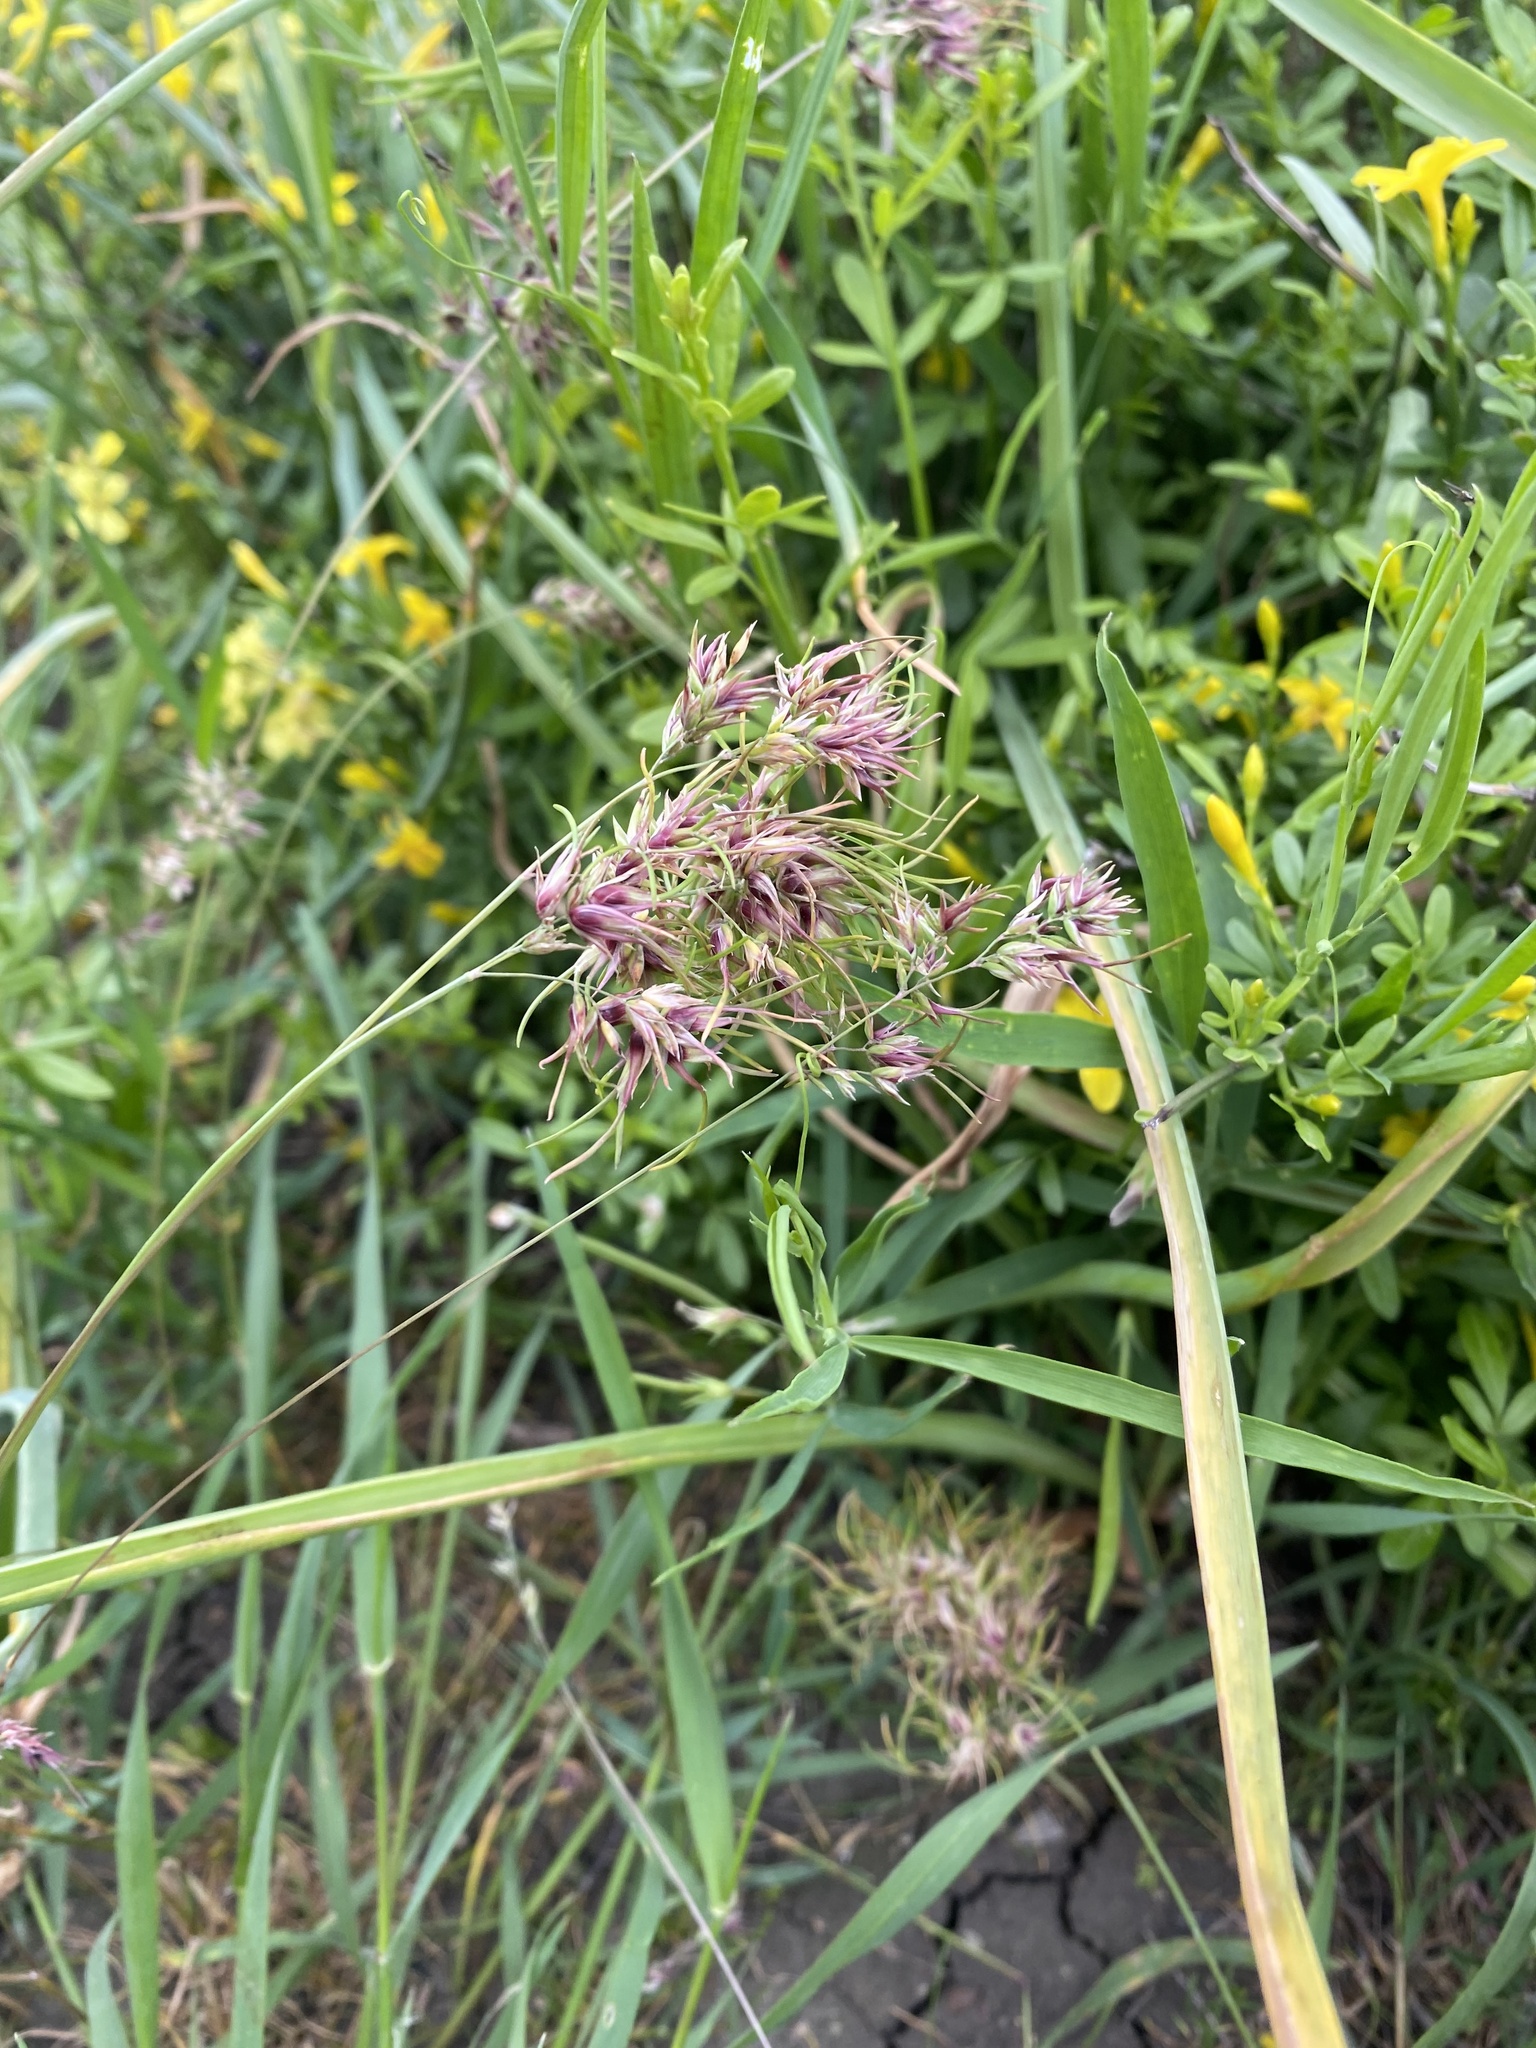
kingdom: Plantae
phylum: Tracheophyta
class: Liliopsida
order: Poales
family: Poaceae
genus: Poa
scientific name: Poa bulbosa
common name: Bulbous bluegrass
